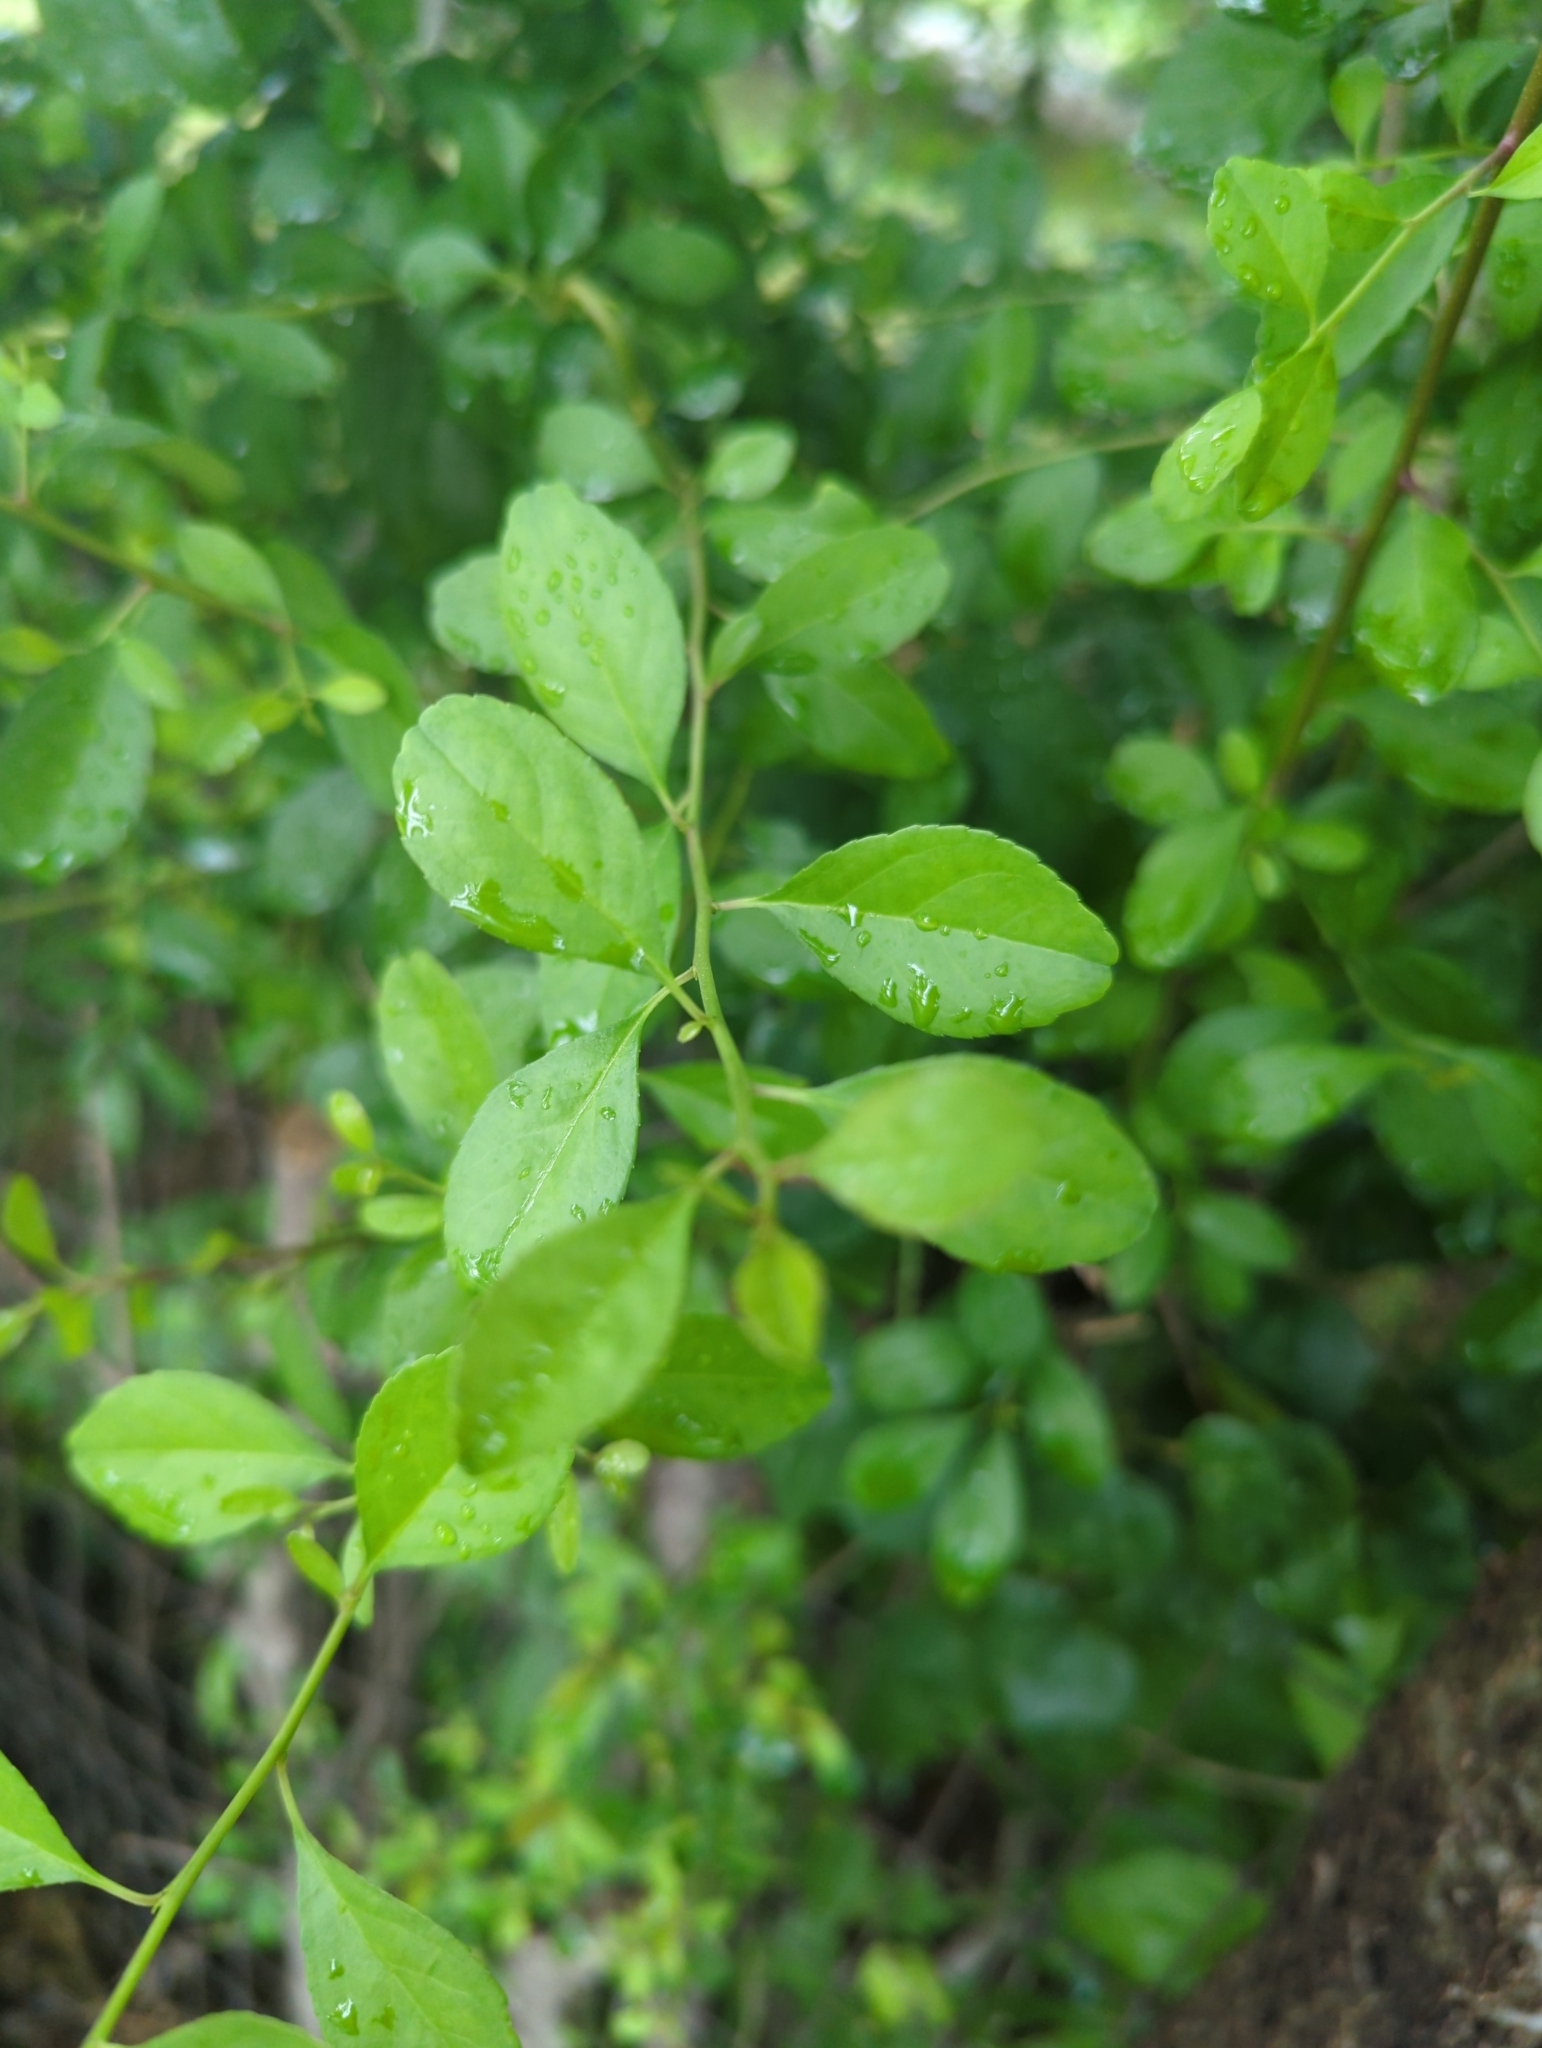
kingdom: Plantae
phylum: Tracheophyta
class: Magnoliopsida
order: Aquifoliales
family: Aquifoliaceae
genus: Ilex
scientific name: Ilex decidua
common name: Possum-haw
